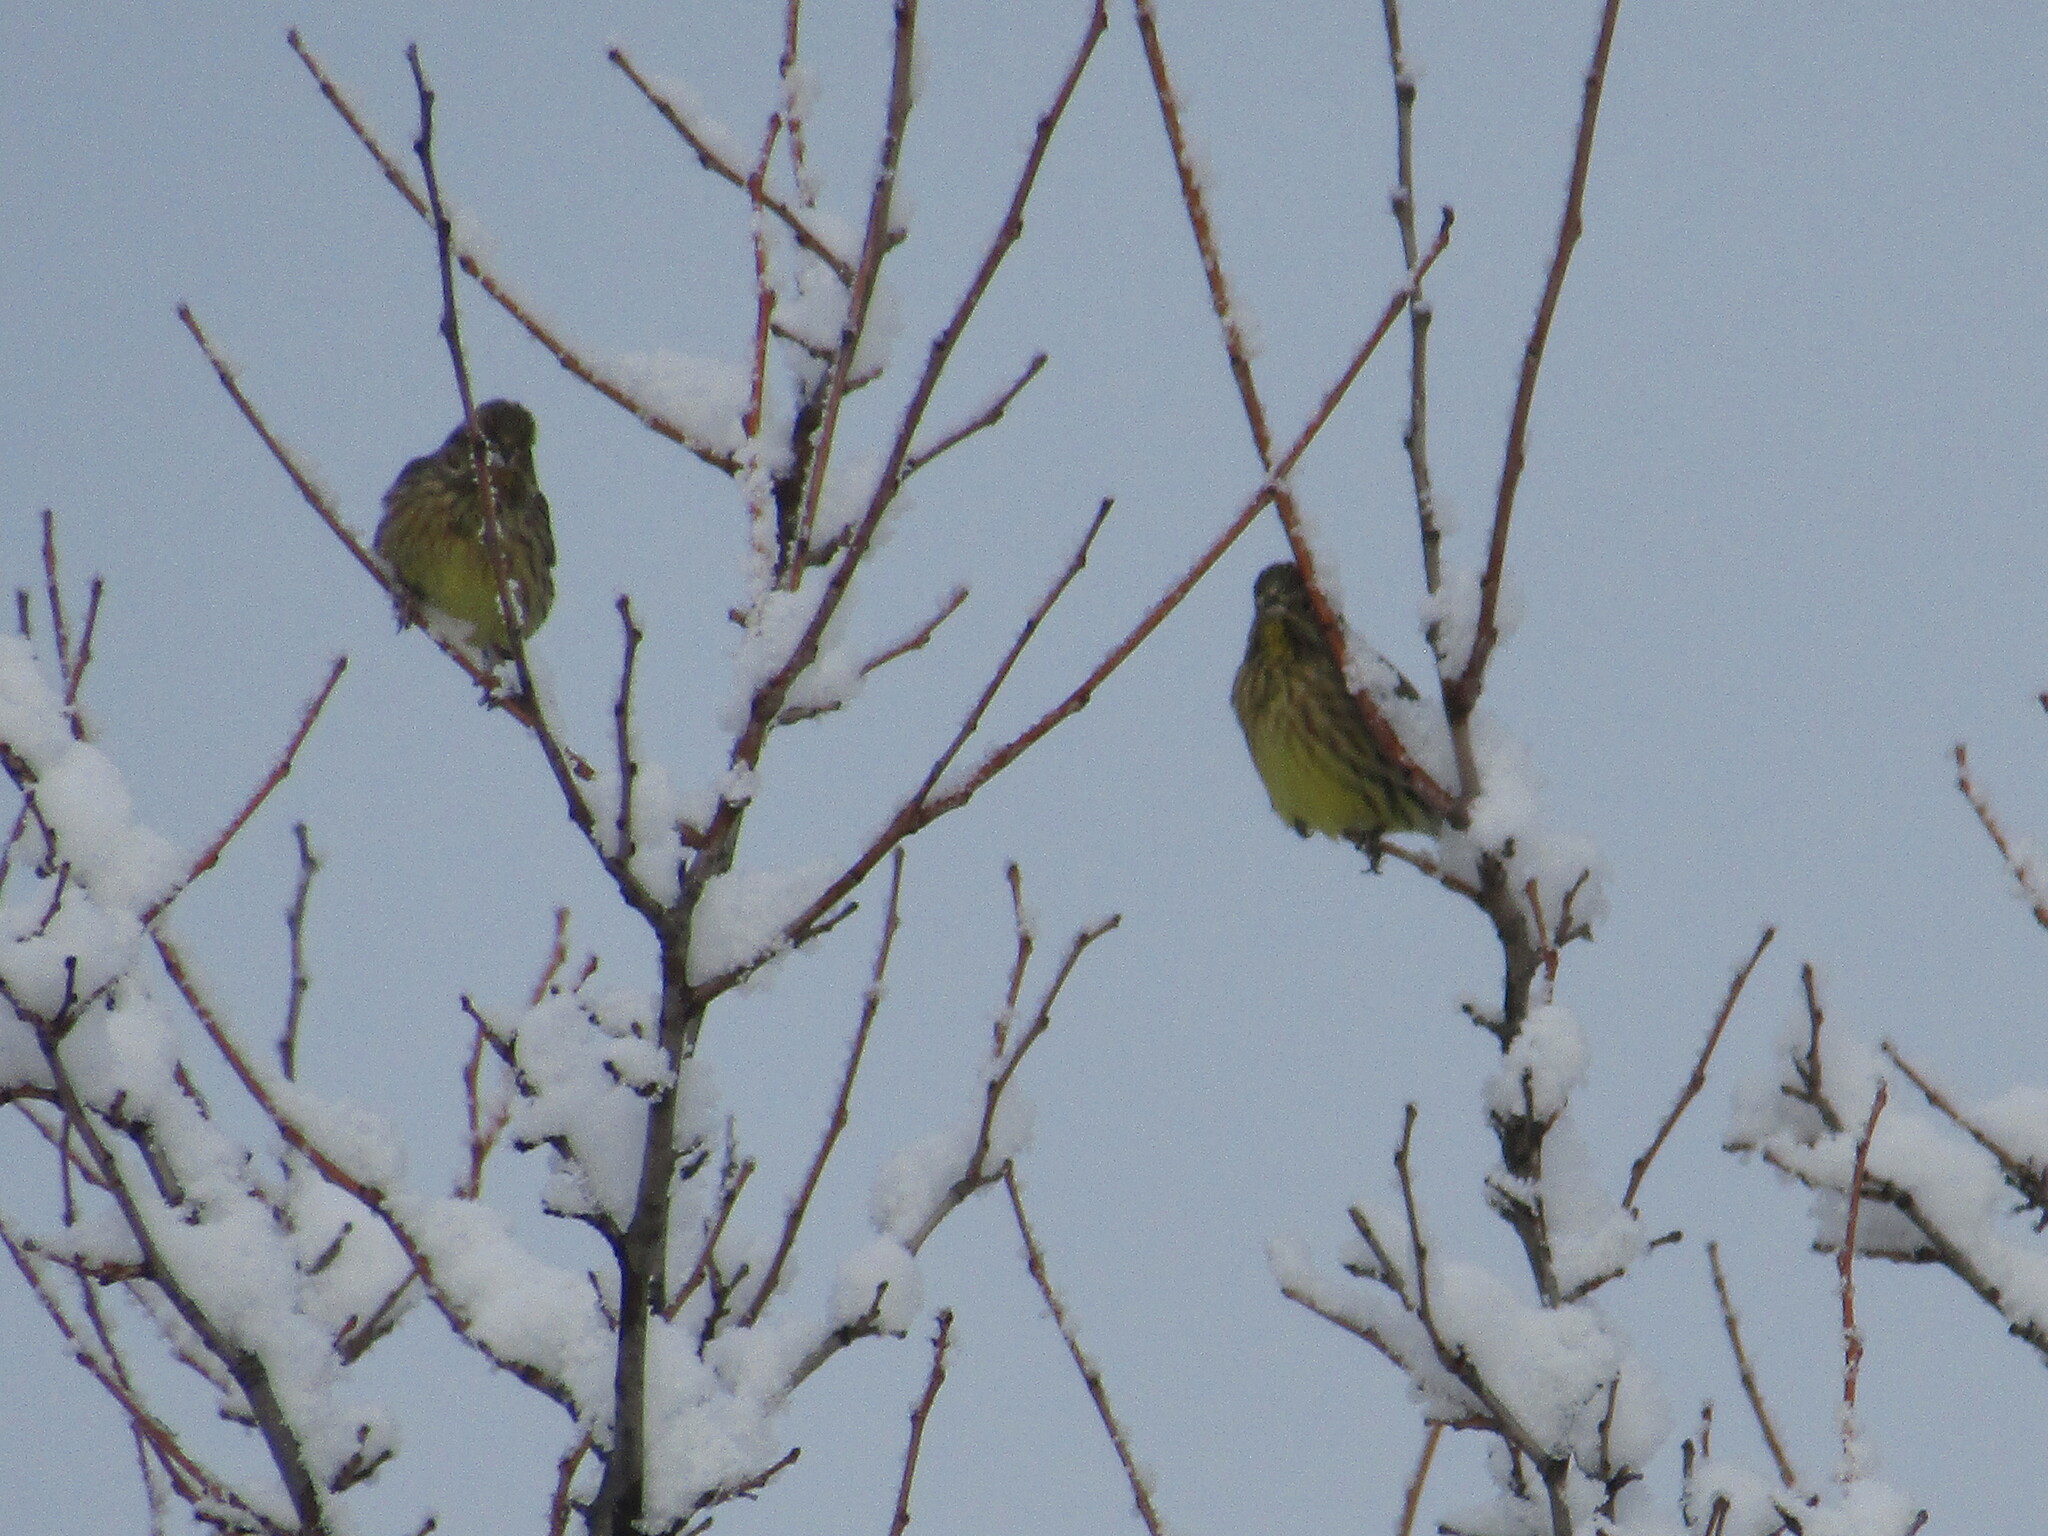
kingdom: Animalia
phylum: Chordata
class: Aves
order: Passeriformes
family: Emberizidae
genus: Emberiza
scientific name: Emberiza citrinella
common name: Yellowhammer
